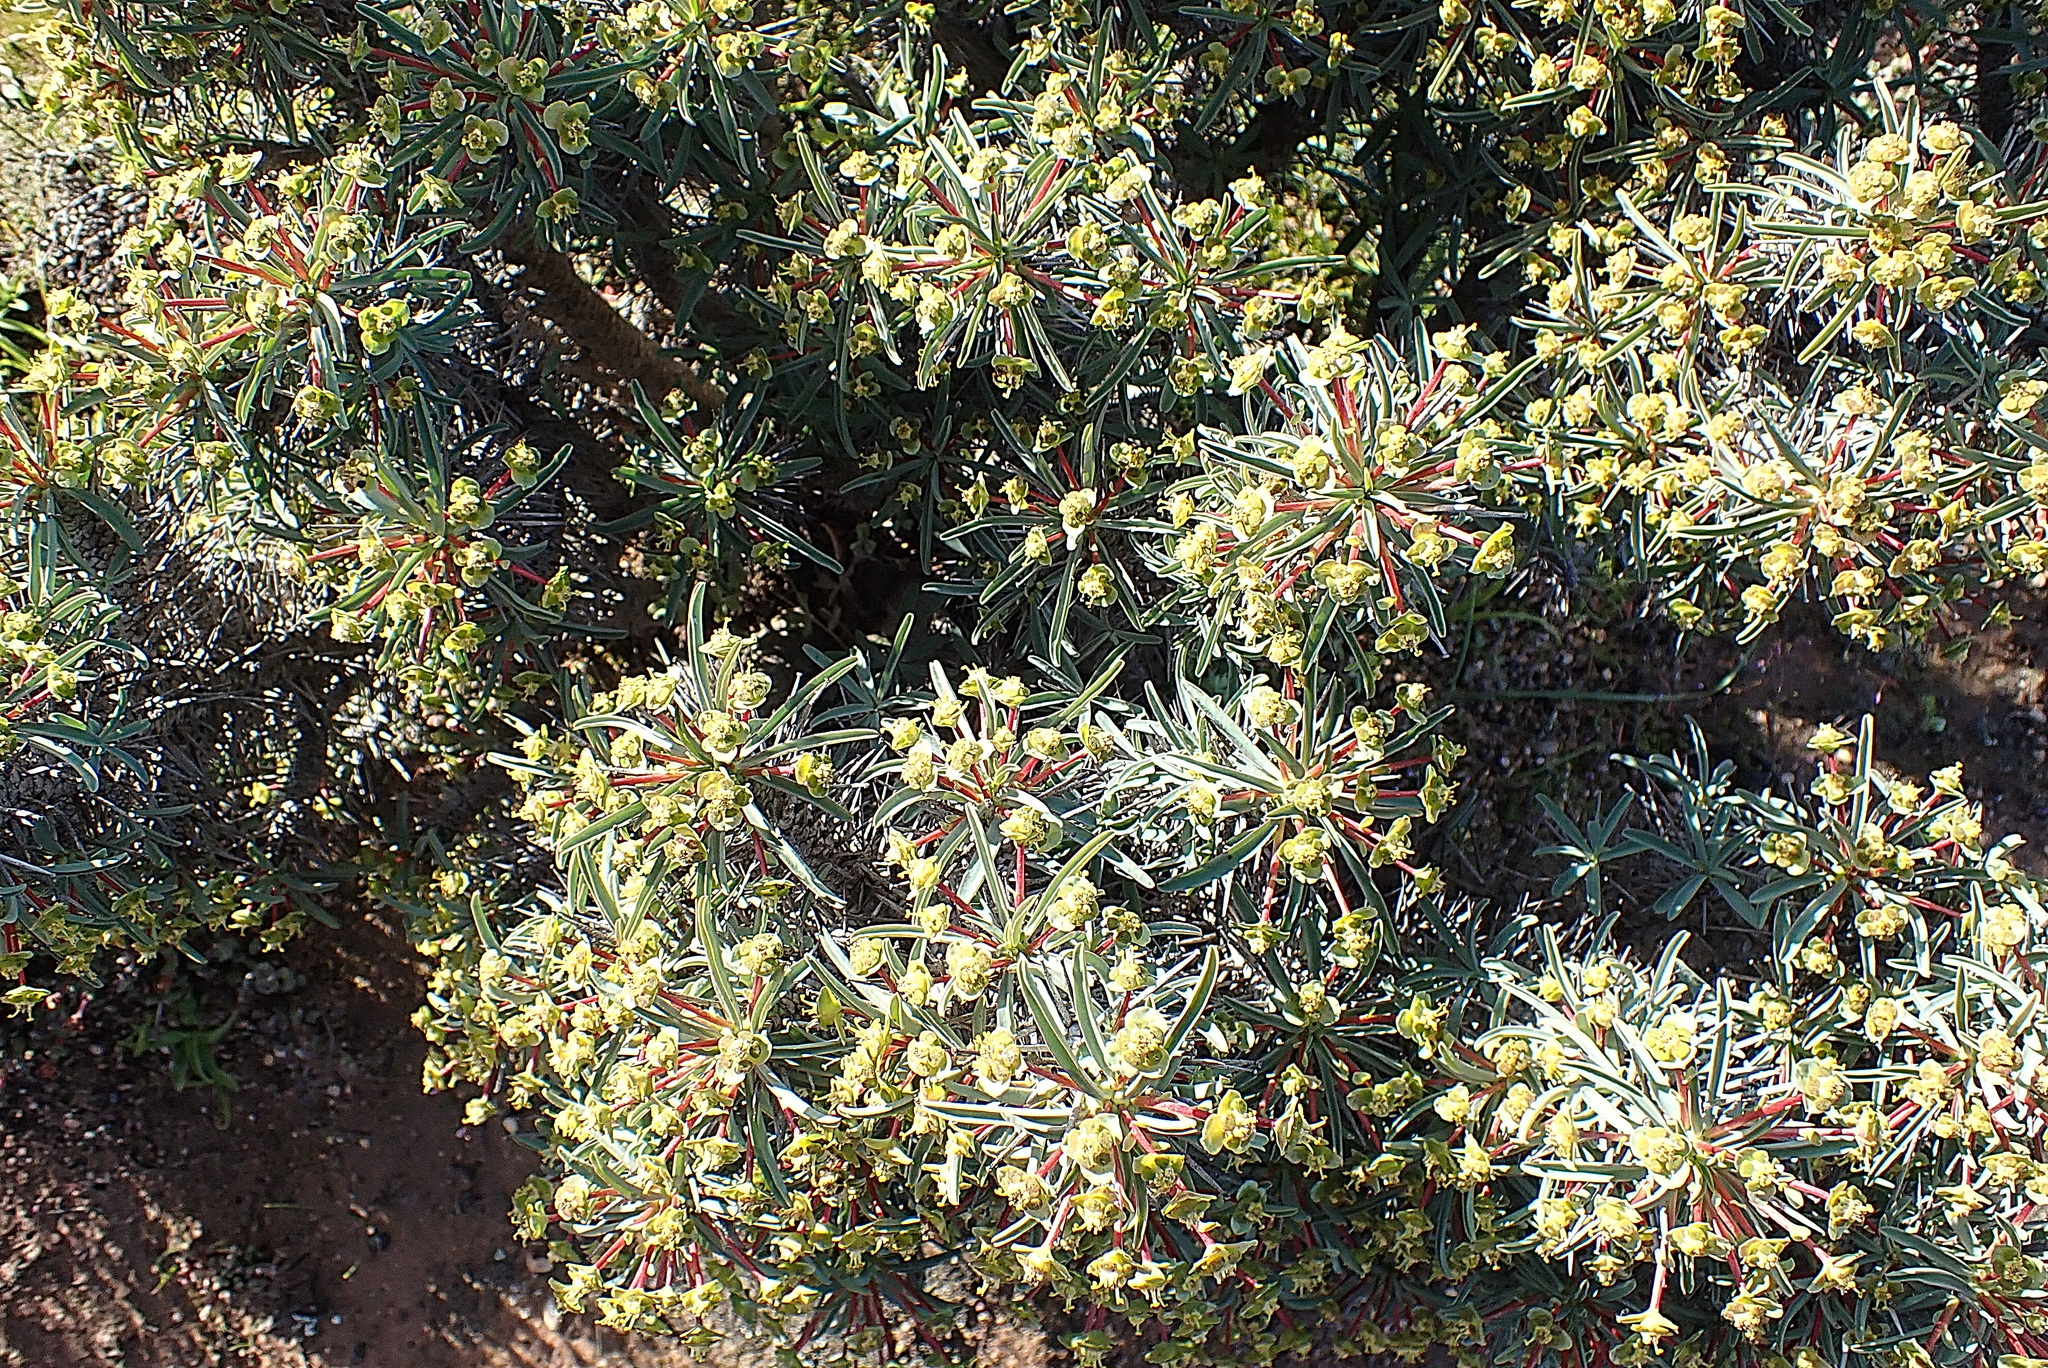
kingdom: Plantae
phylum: Tracheophyta
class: Magnoliopsida
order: Malpighiales
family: Euphorbiaceae
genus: Euphorbia
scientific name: Euphorbia loricata
